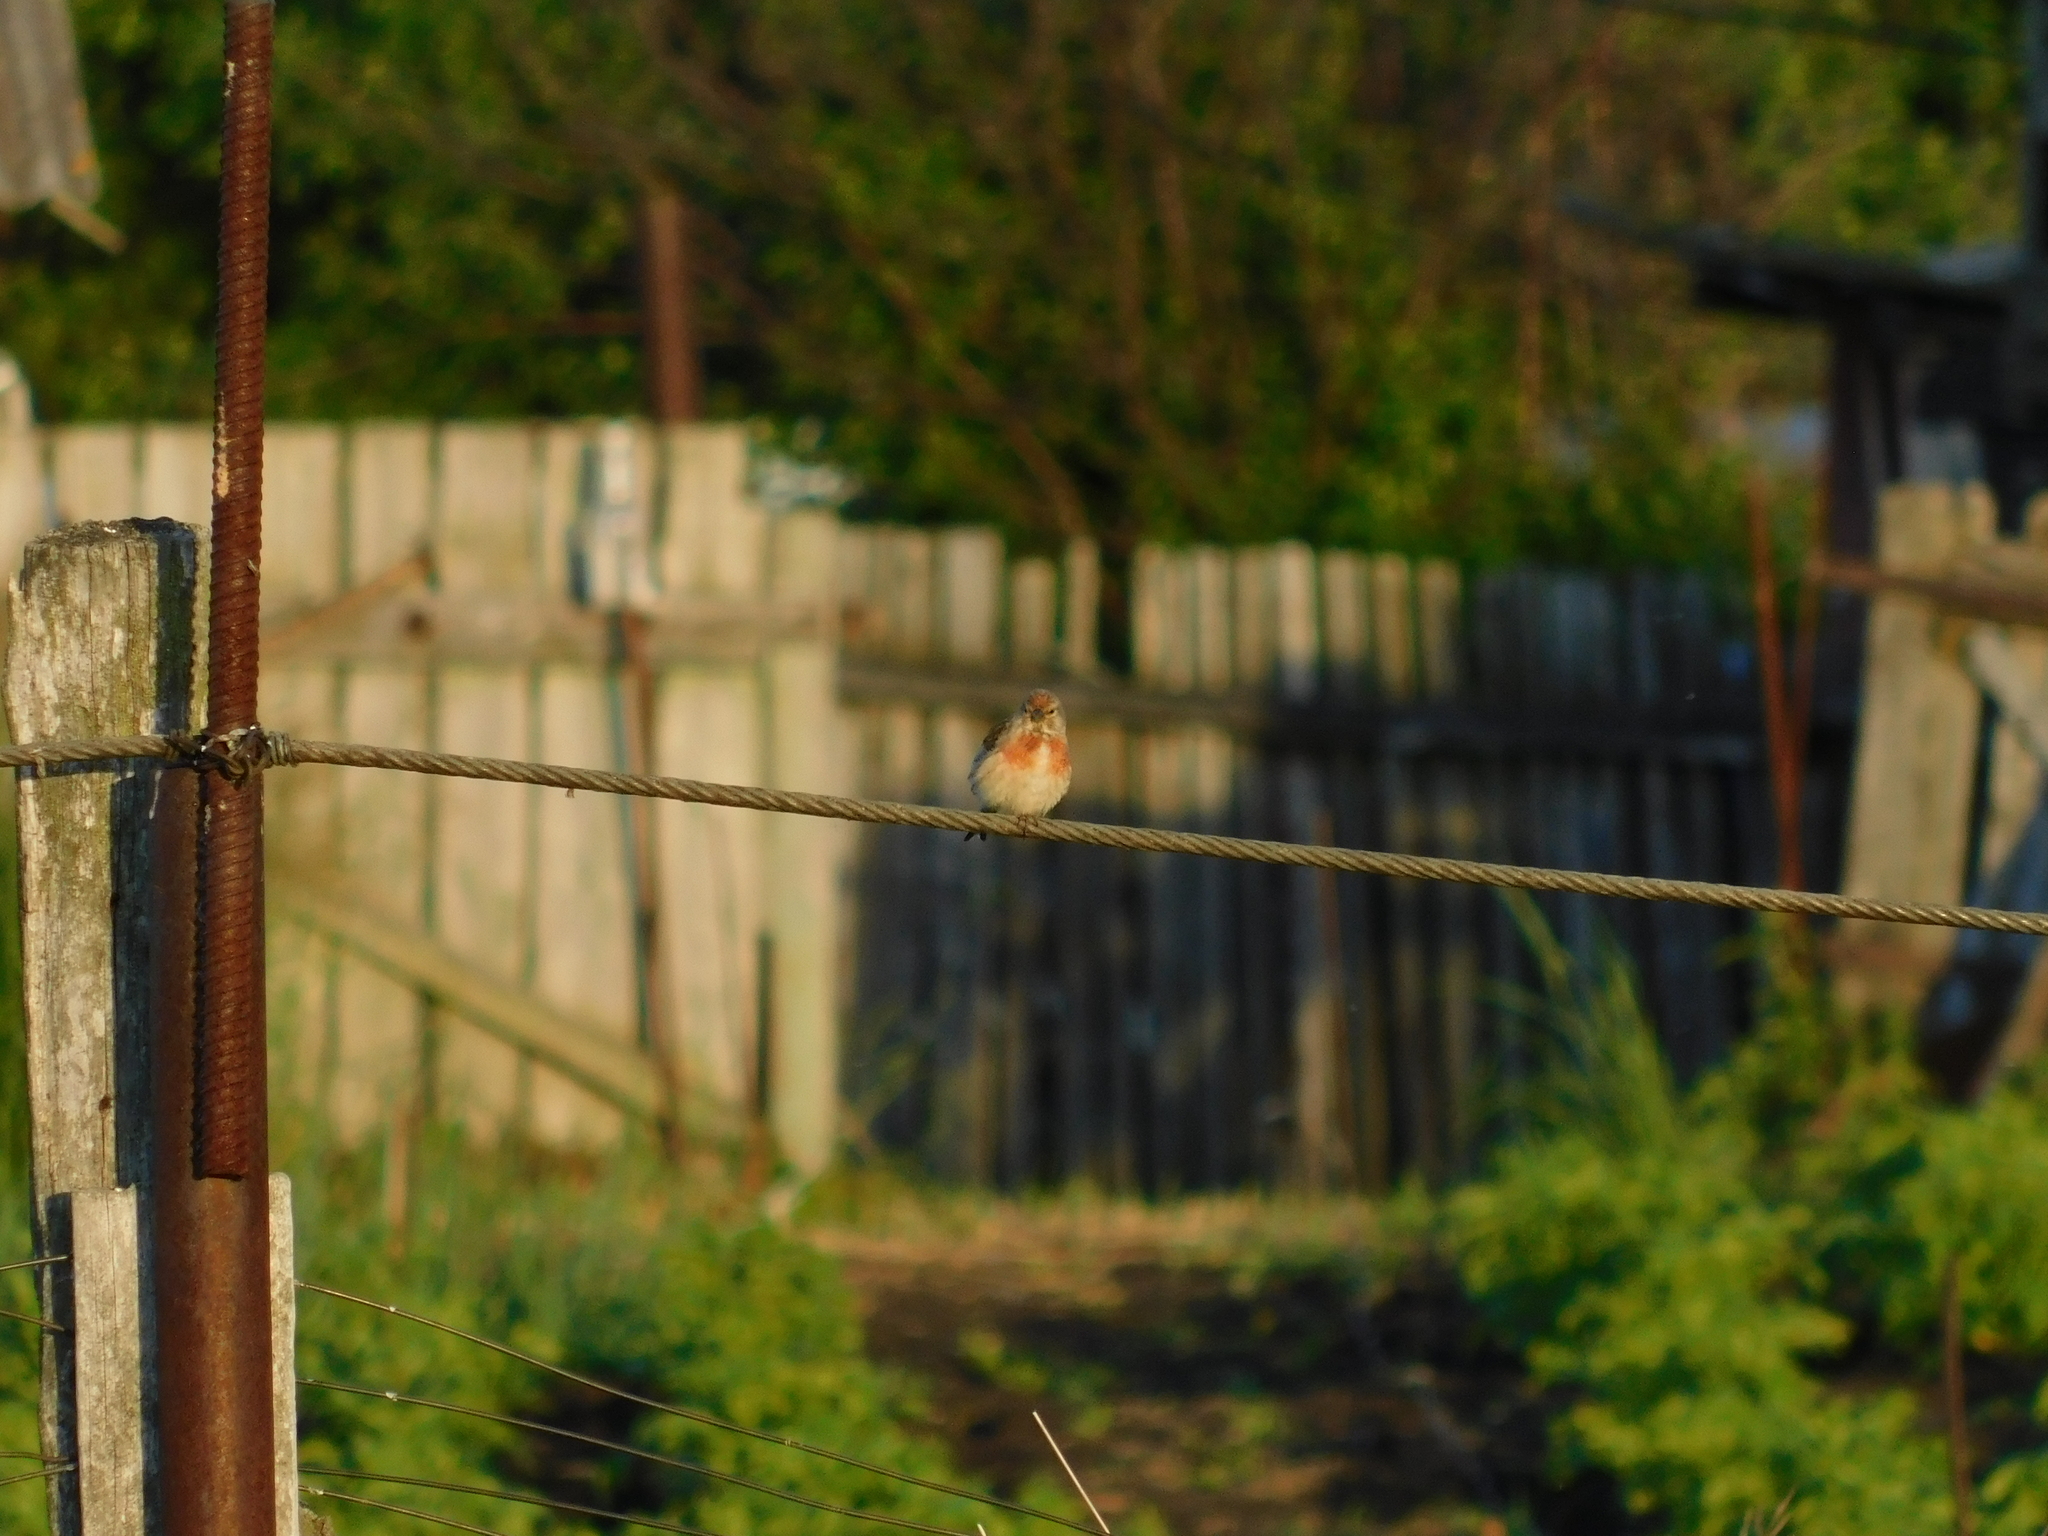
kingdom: Animalia
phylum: Chordata
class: Aves
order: Passeriformes
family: Fringillidae
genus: Linaria
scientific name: Linaria cannabina
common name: Common linnet
